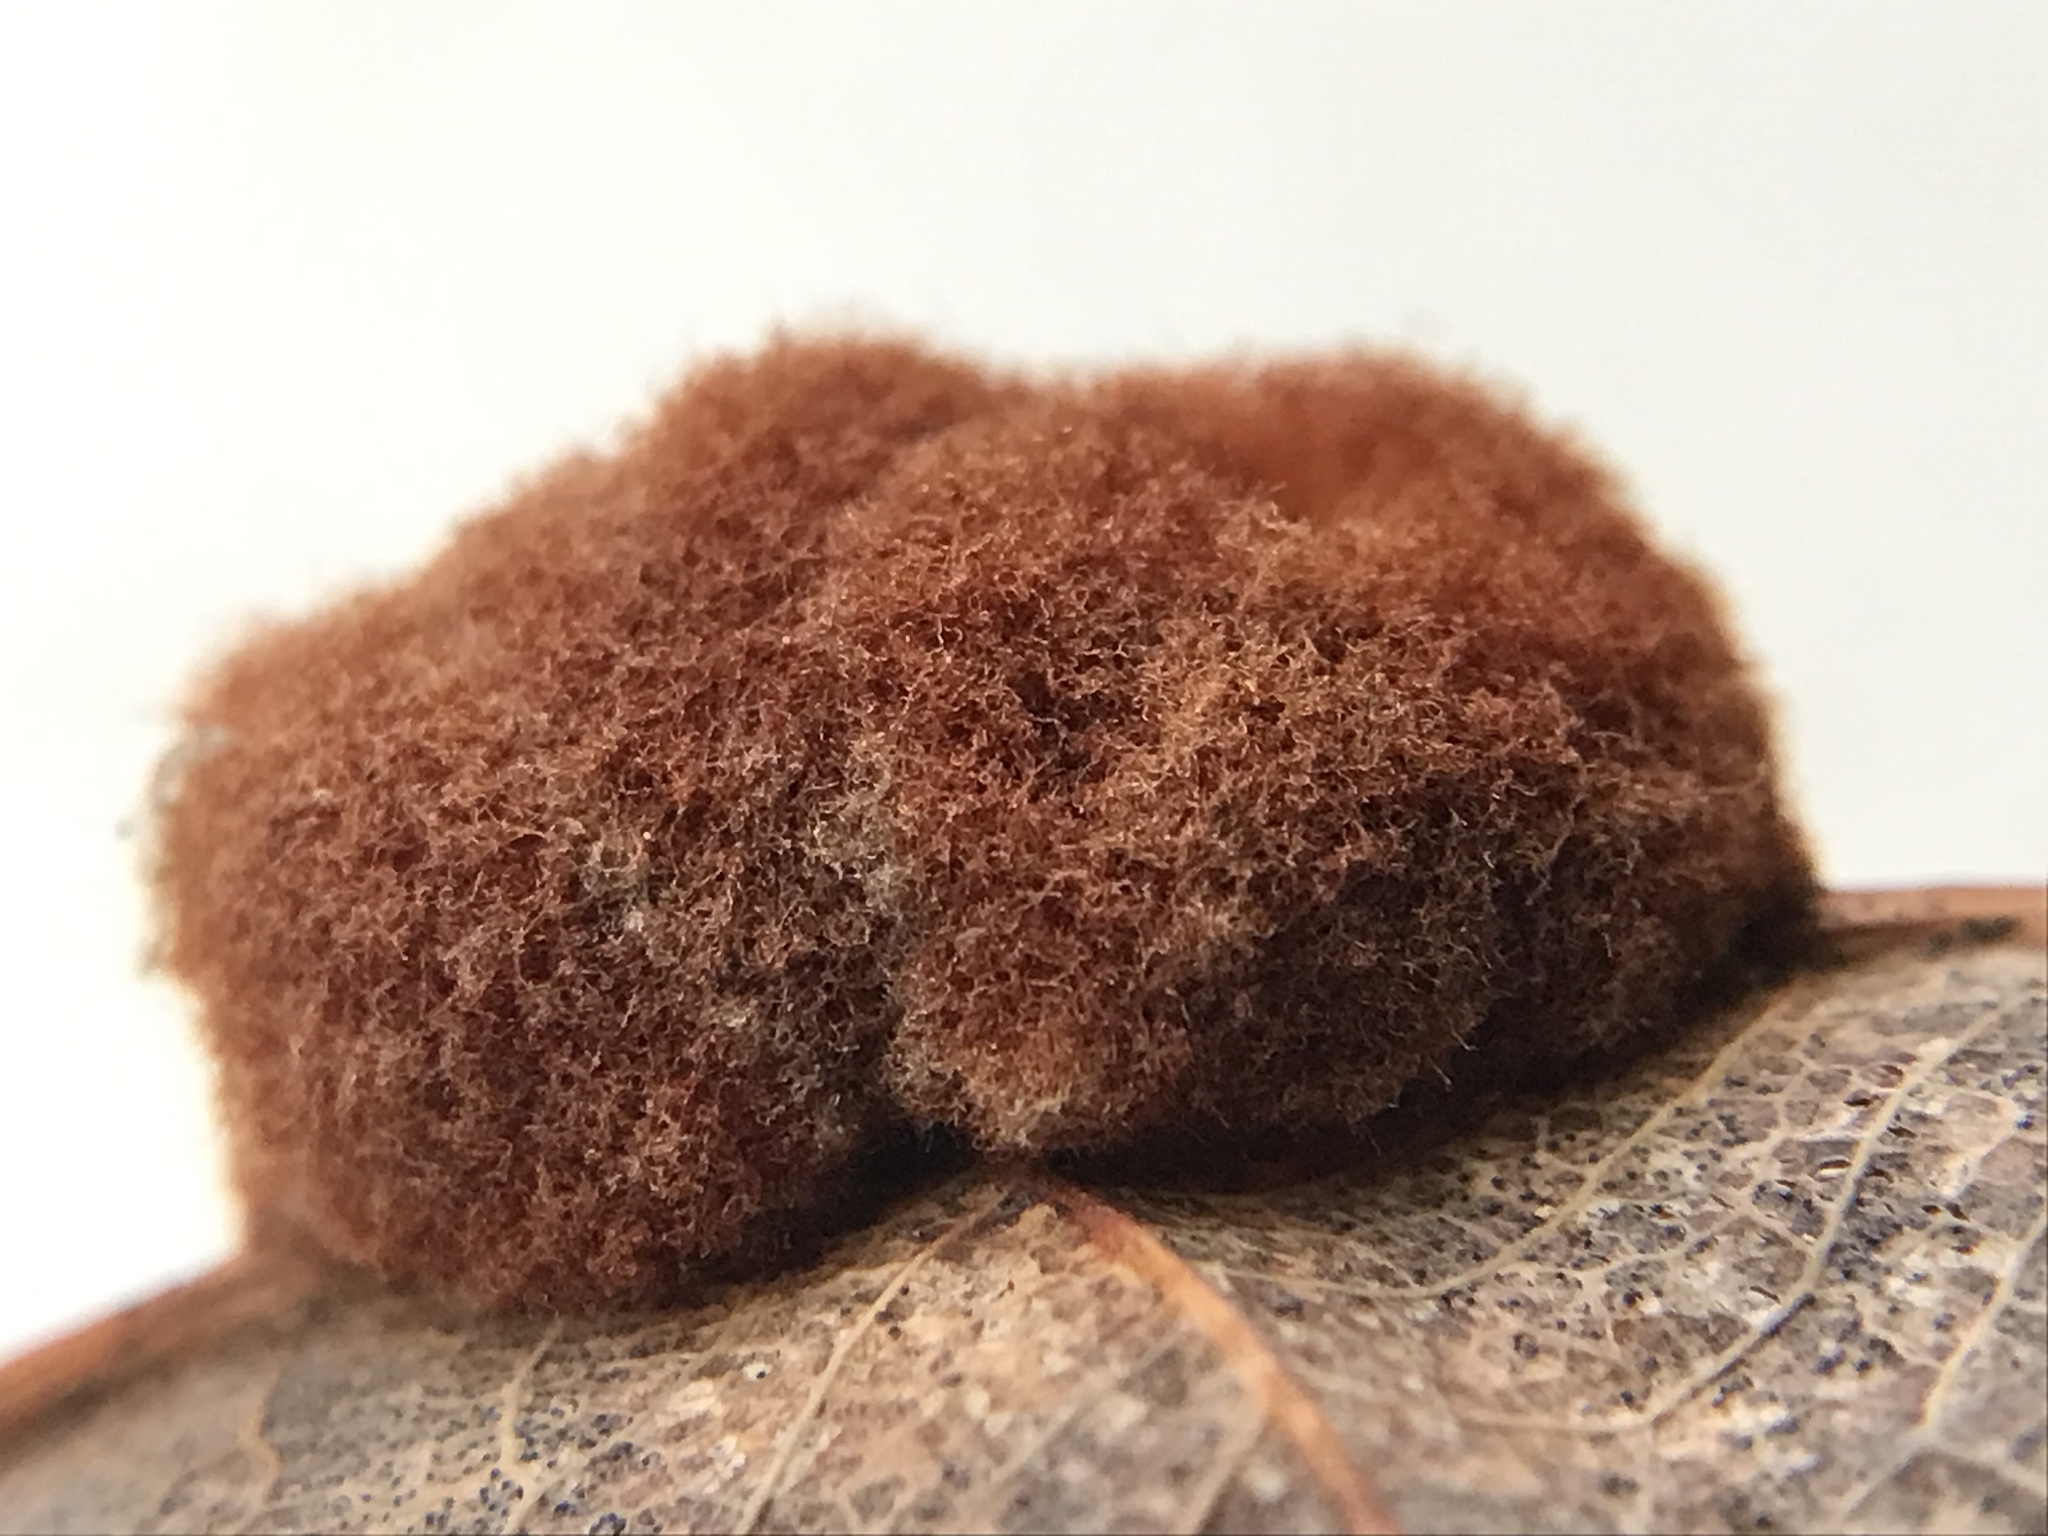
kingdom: Animalia
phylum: Arthropoda
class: Insecta
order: Hymenoptera
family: Cynipidae
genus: Andricus
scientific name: Andricus quercusflocci
